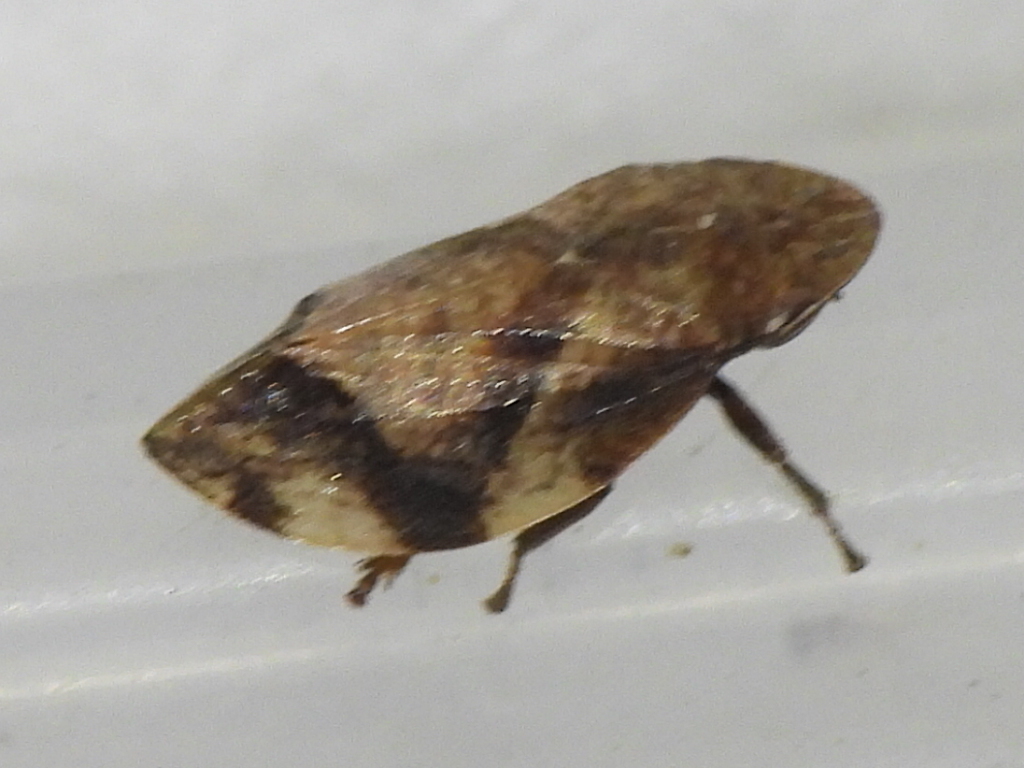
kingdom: Animalia
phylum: Arthropoda
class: Insecta
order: Hemiptera
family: Aphrophoridae
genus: Lepyronia
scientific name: Lepyronia quadrangularis
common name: Diamond-backed spittlebug
